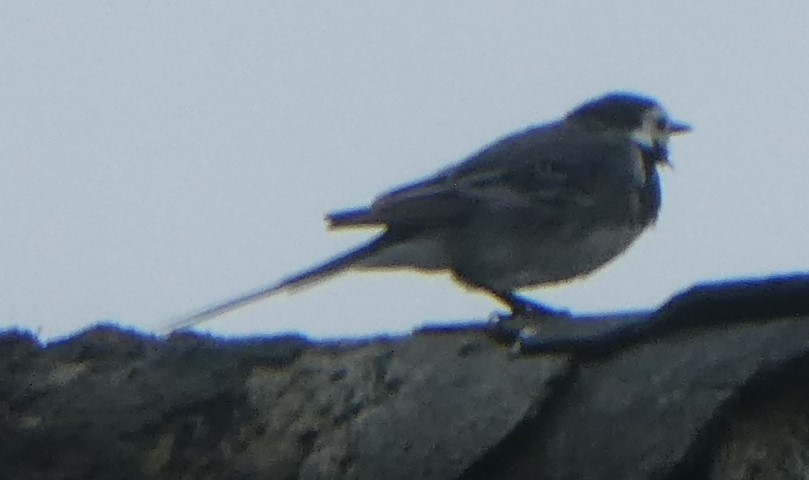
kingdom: Animalia
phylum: Chordata
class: Aves
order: Passeriformes
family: Motacillidae
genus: Motacilla
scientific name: Motacilla alba
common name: White wagtail
